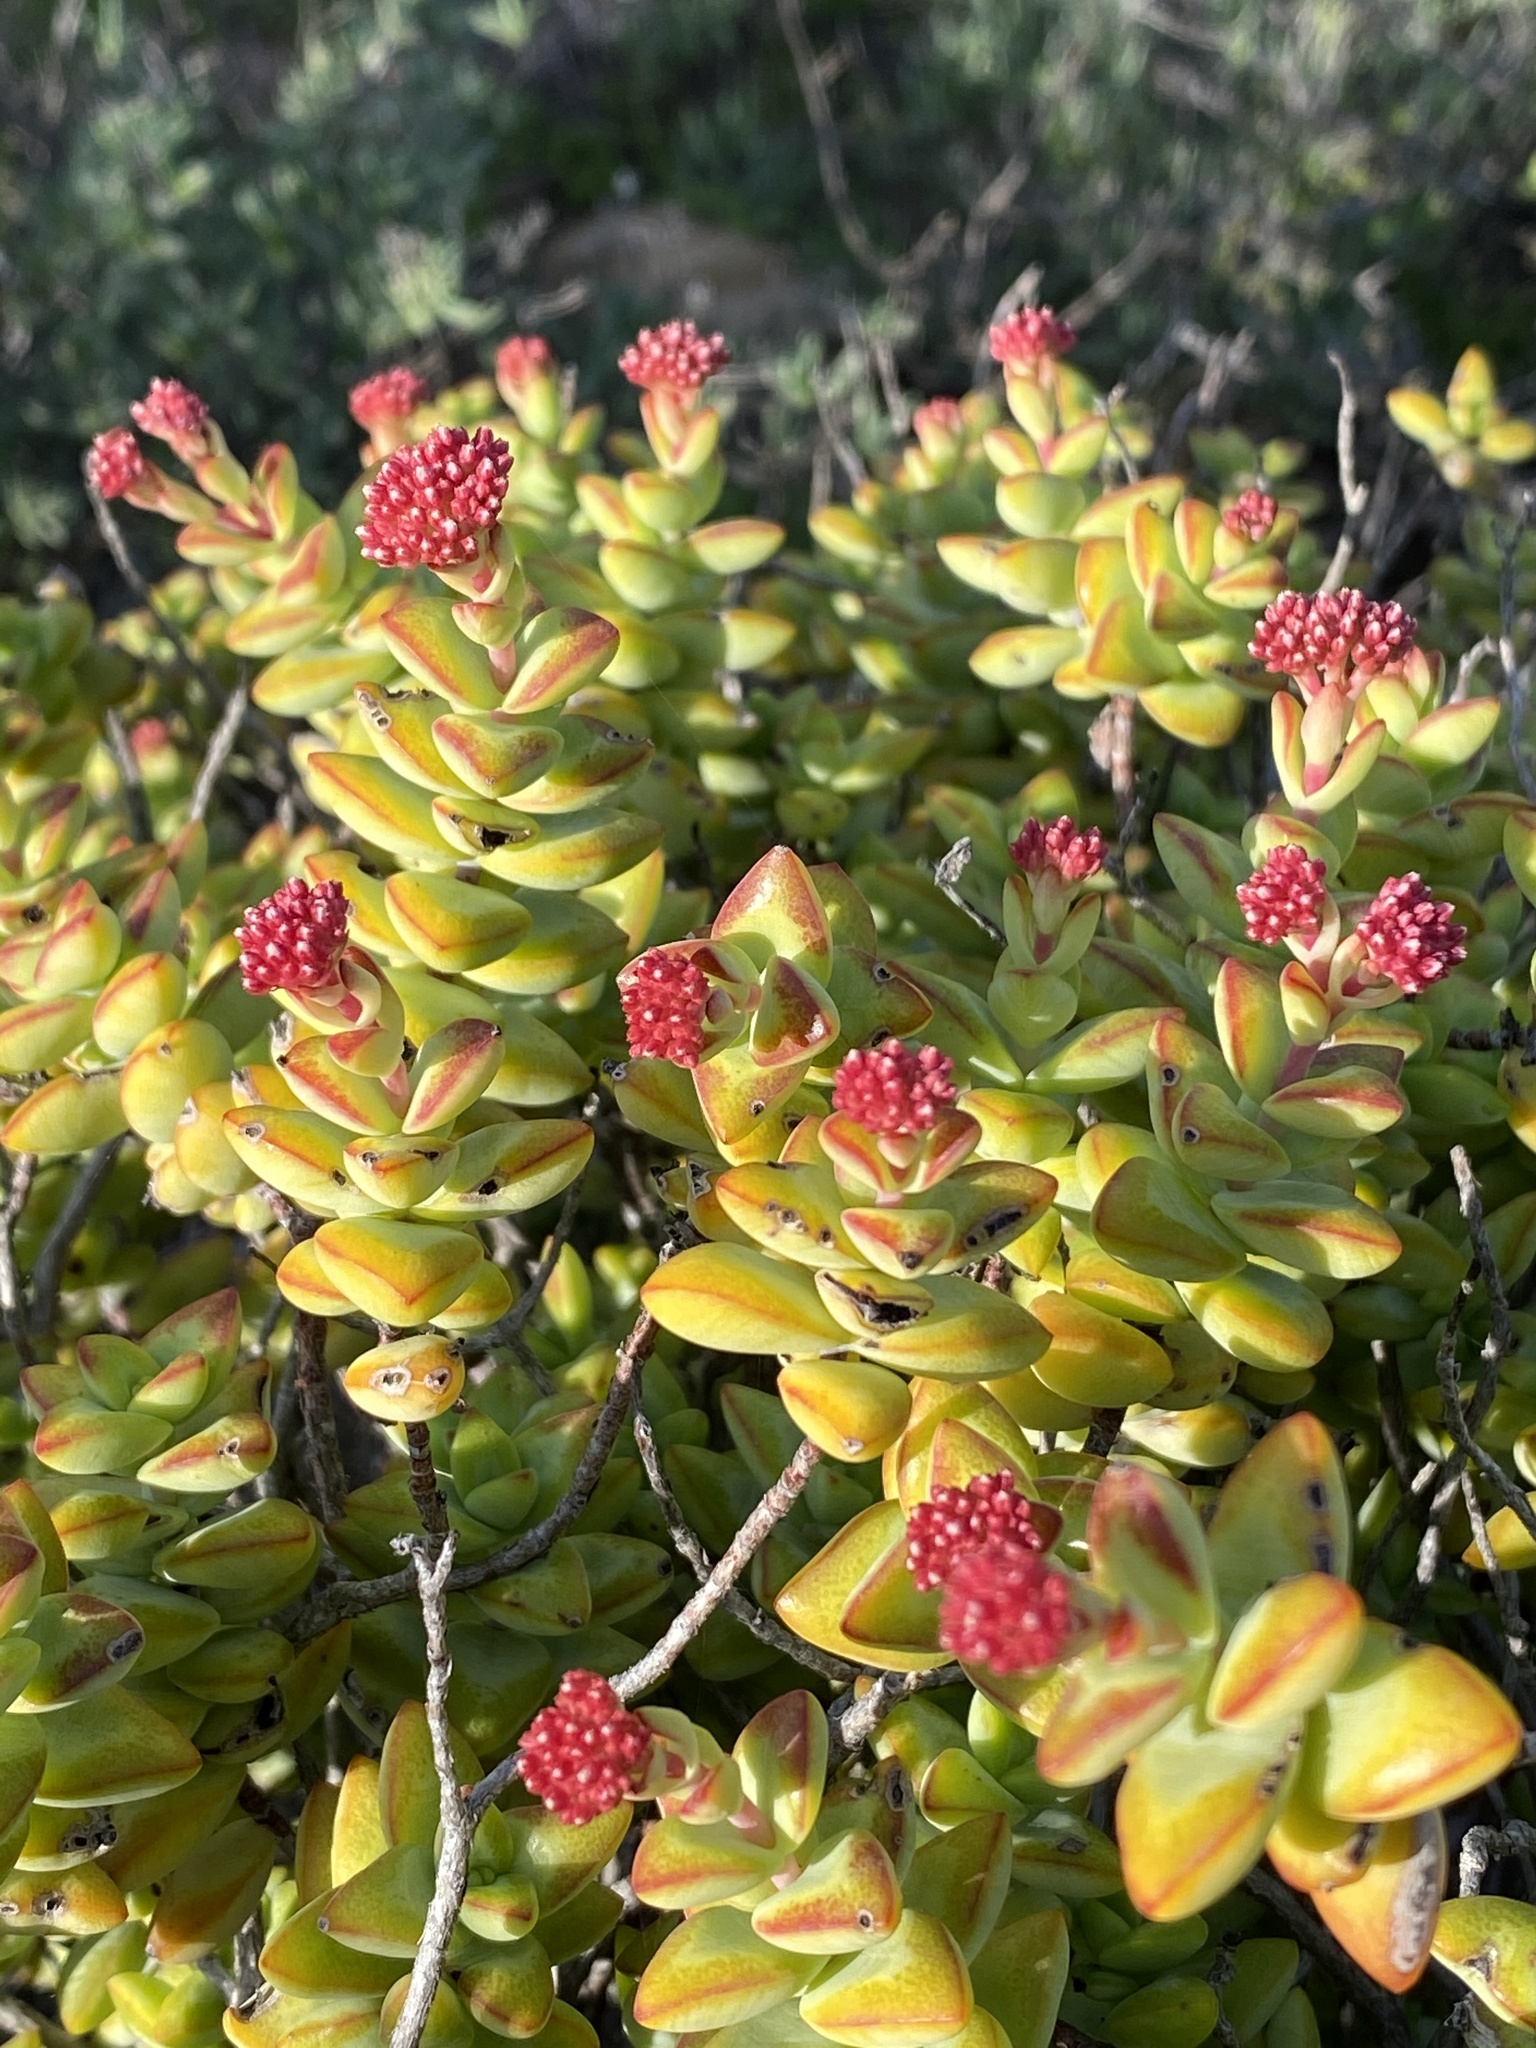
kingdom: Plantae
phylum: Tracheophyta
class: Magnoliopsida
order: Saxifragales
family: Crassulaceae
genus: Crassula
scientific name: Crassula rupestris
